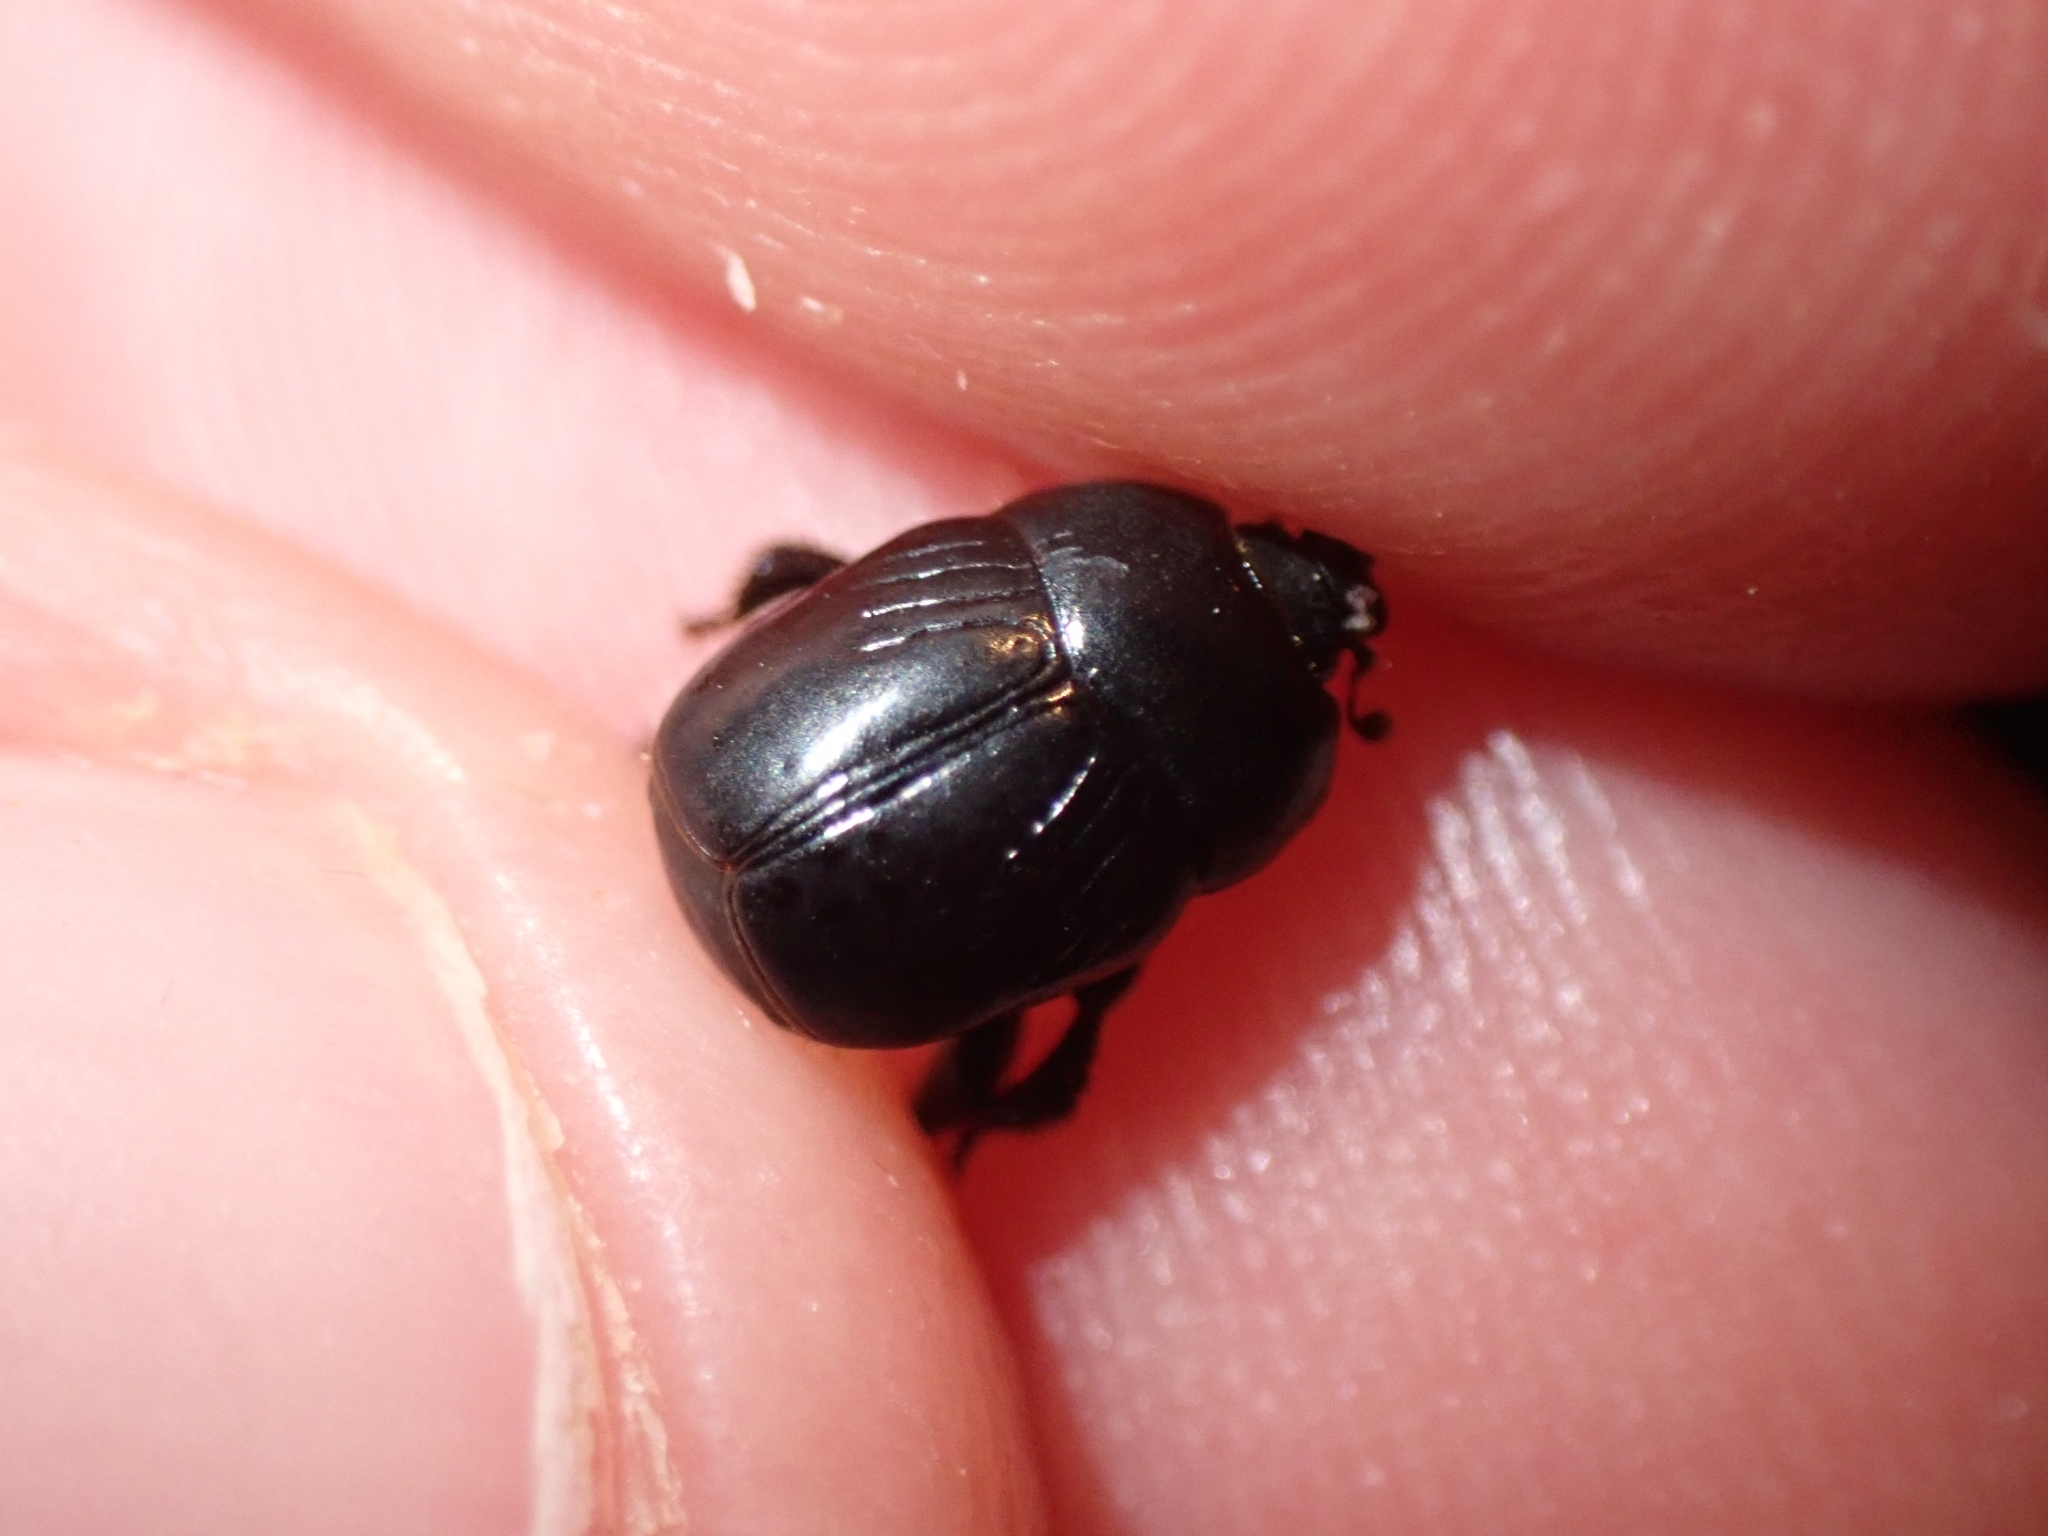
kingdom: Animalia
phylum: Arthropoda
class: Insecta
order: Coleoptera
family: Histeridae
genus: Saprinus
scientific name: Saprinus pedator
